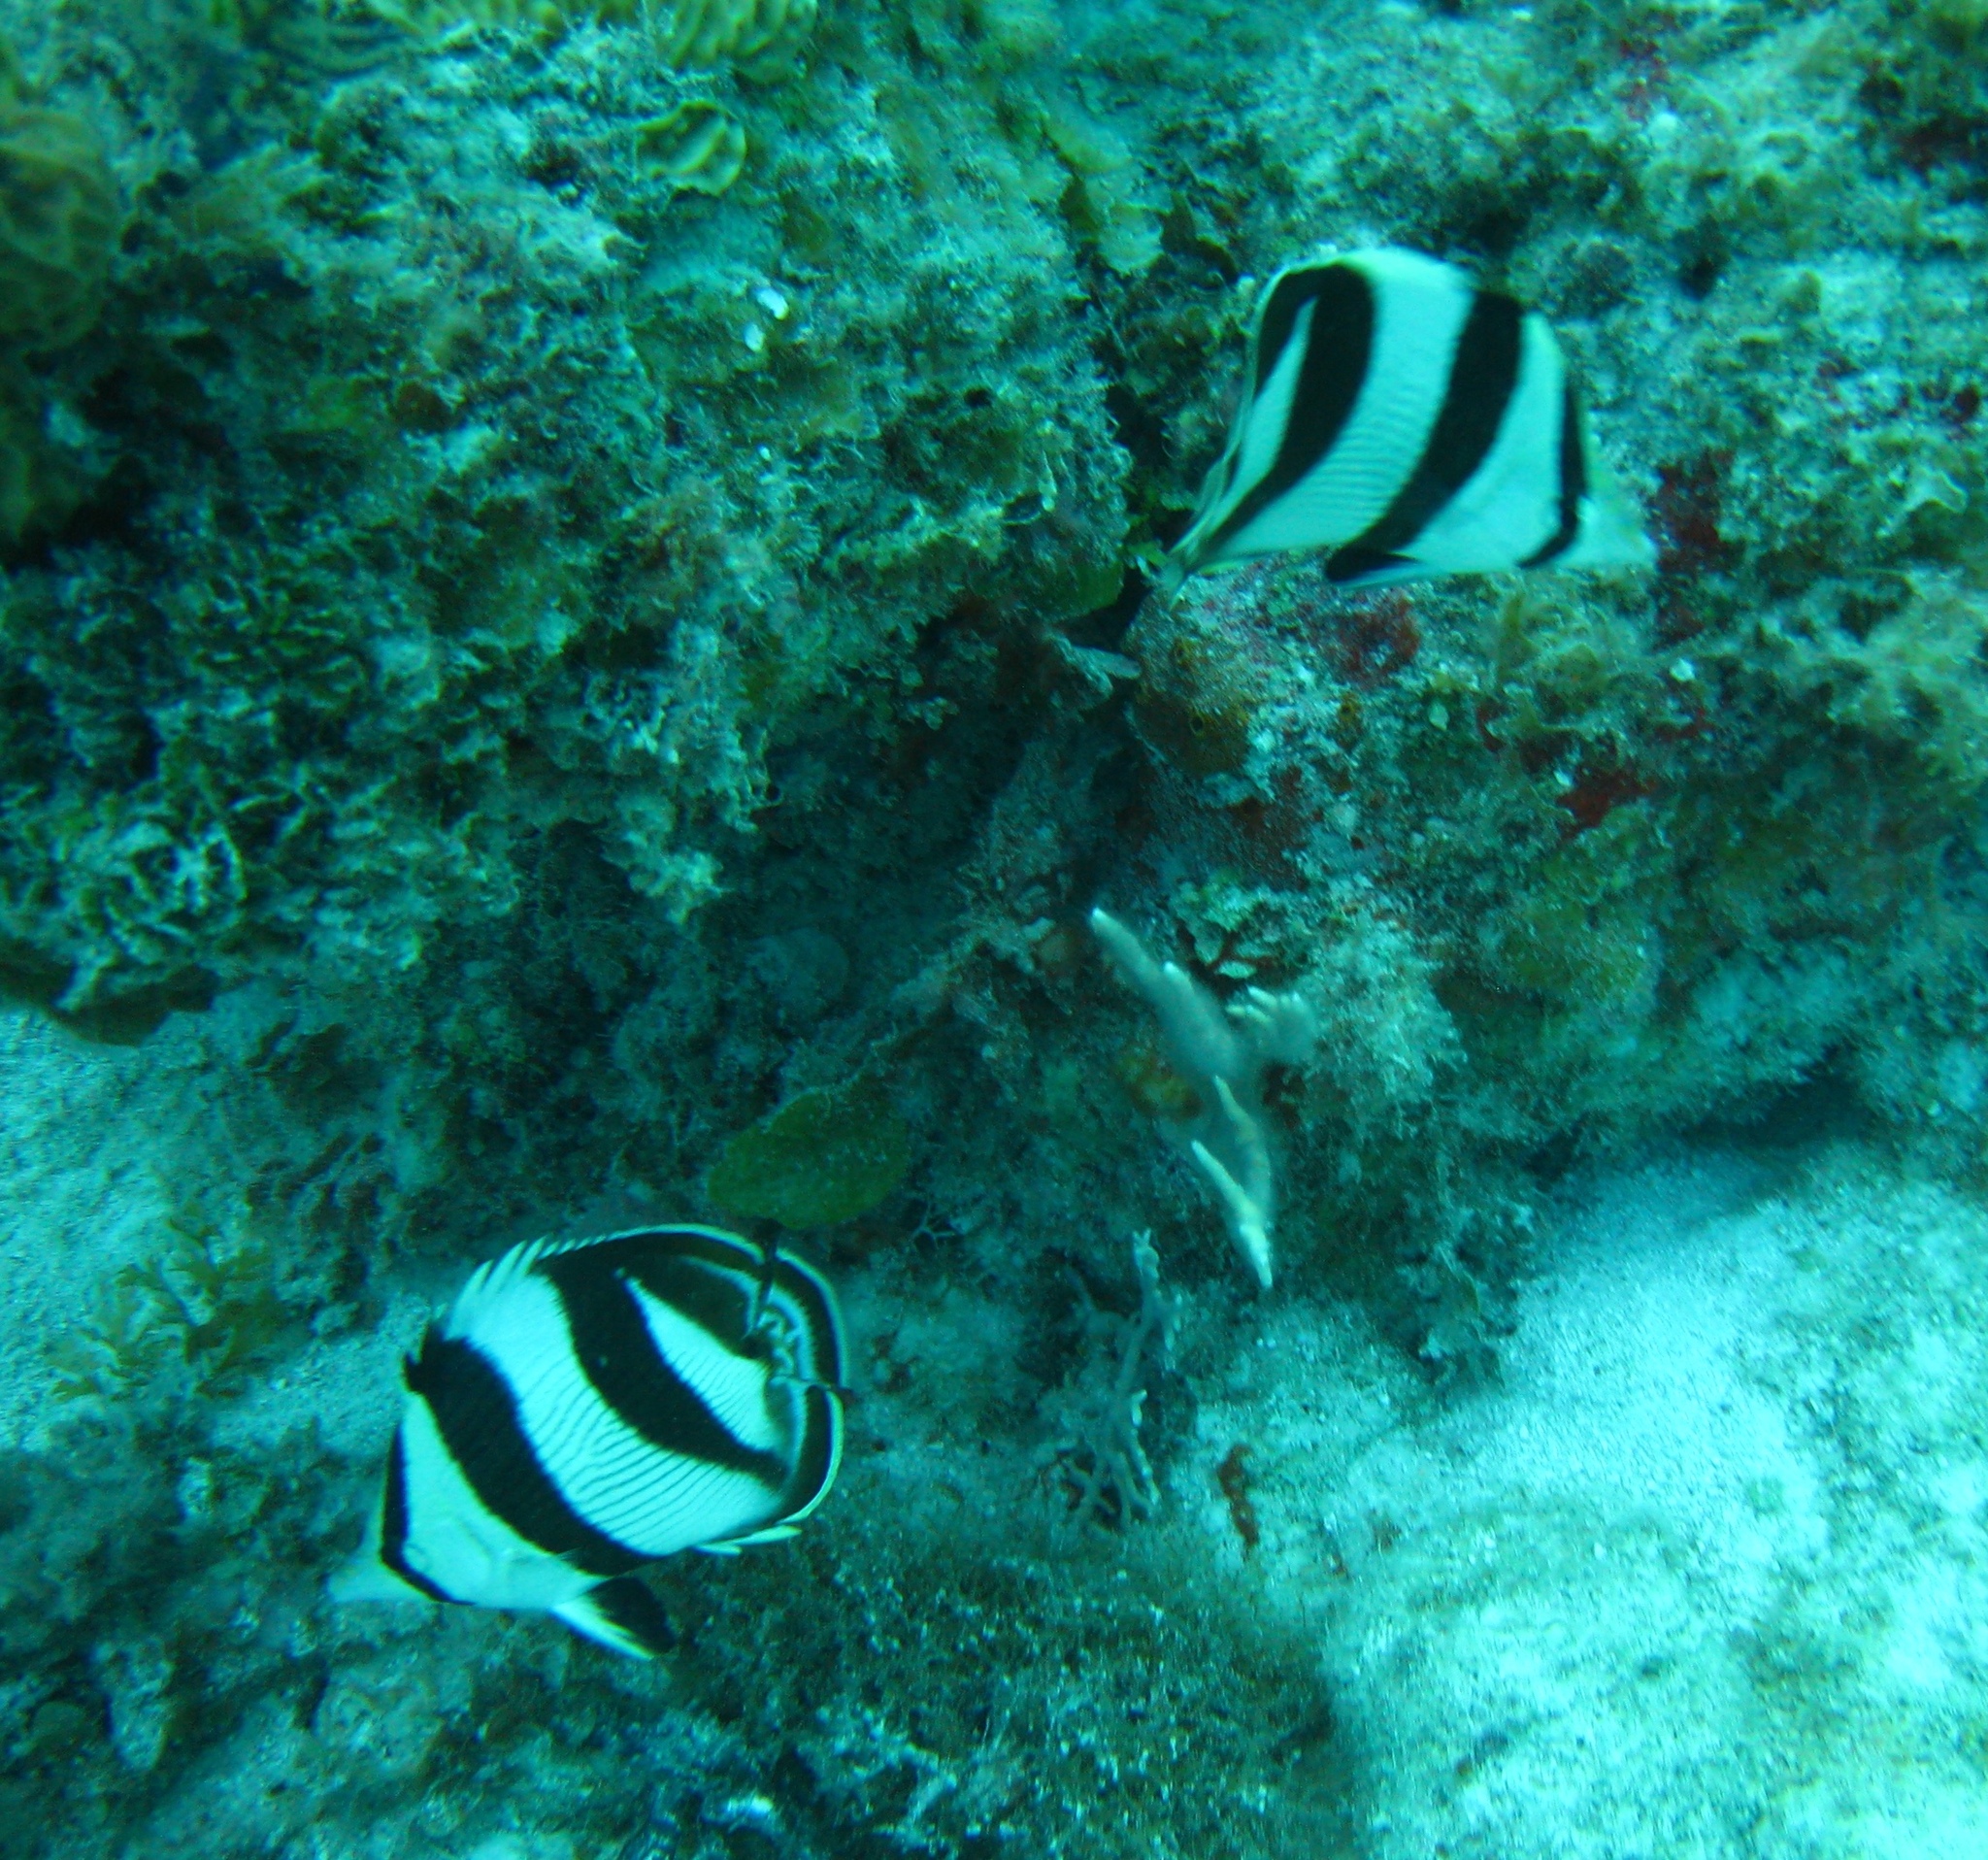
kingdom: Animalia
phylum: Chordata
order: Perciformes
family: Chaetodontidae
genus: Chaetodon
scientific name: Chaetodon striatus
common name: Banded butterflyfish
